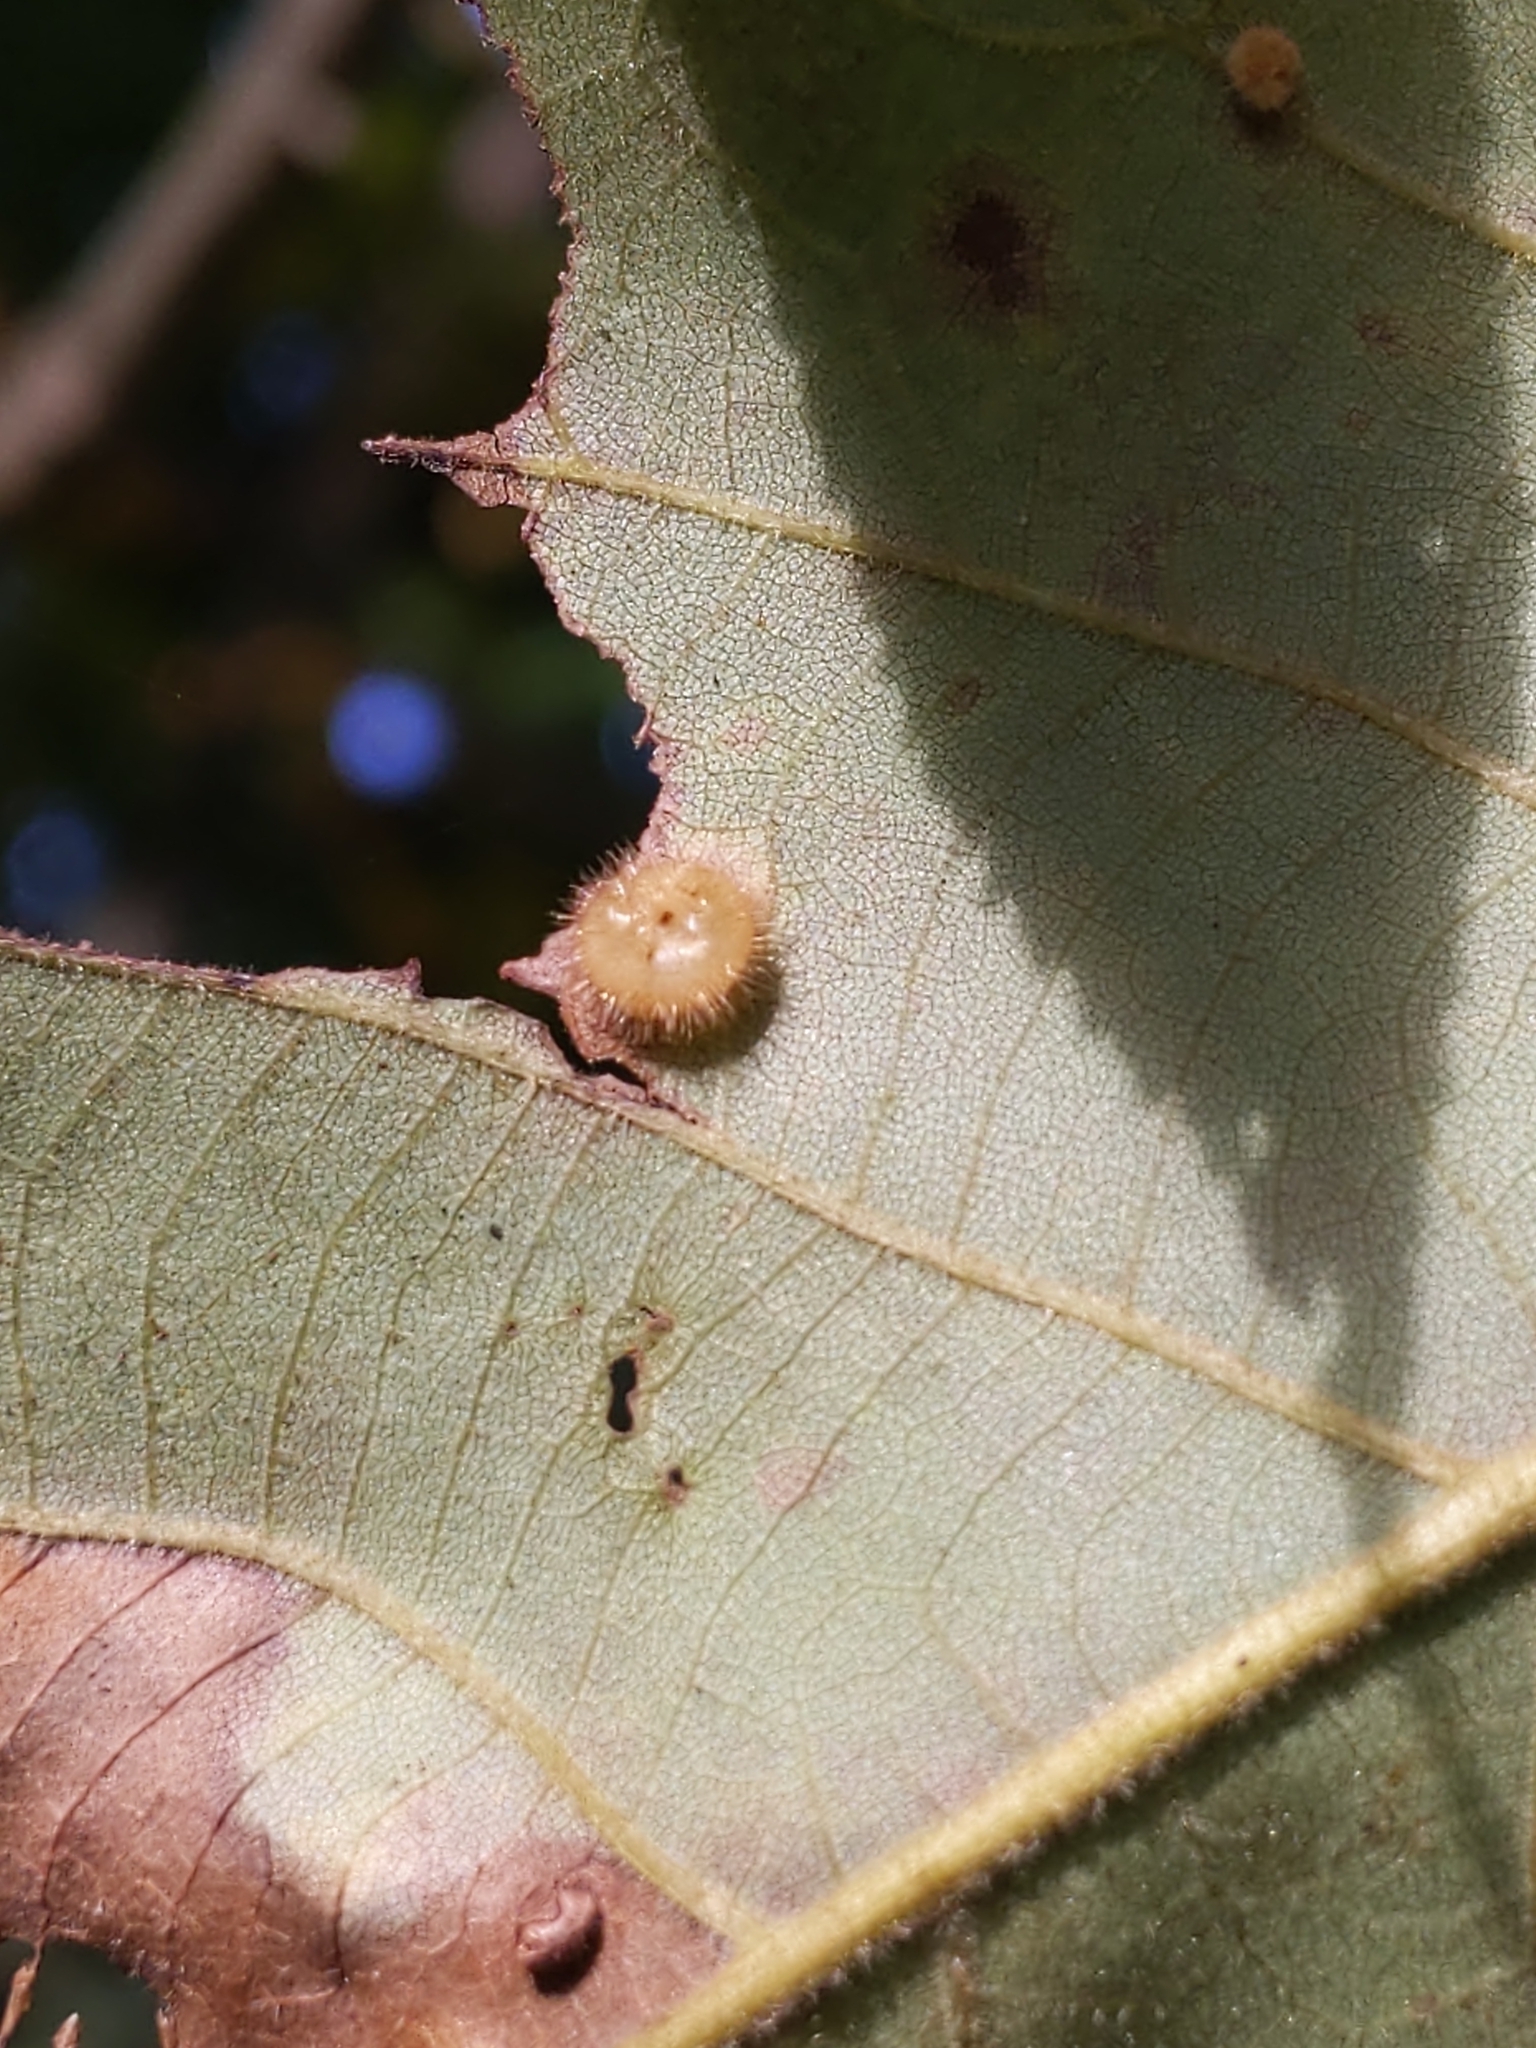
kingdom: Animalia
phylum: Arthropoda
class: Insecta
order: Diptera
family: Cecidomyiidae
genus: Caryomyia
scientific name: Caryomyia thompsoni
